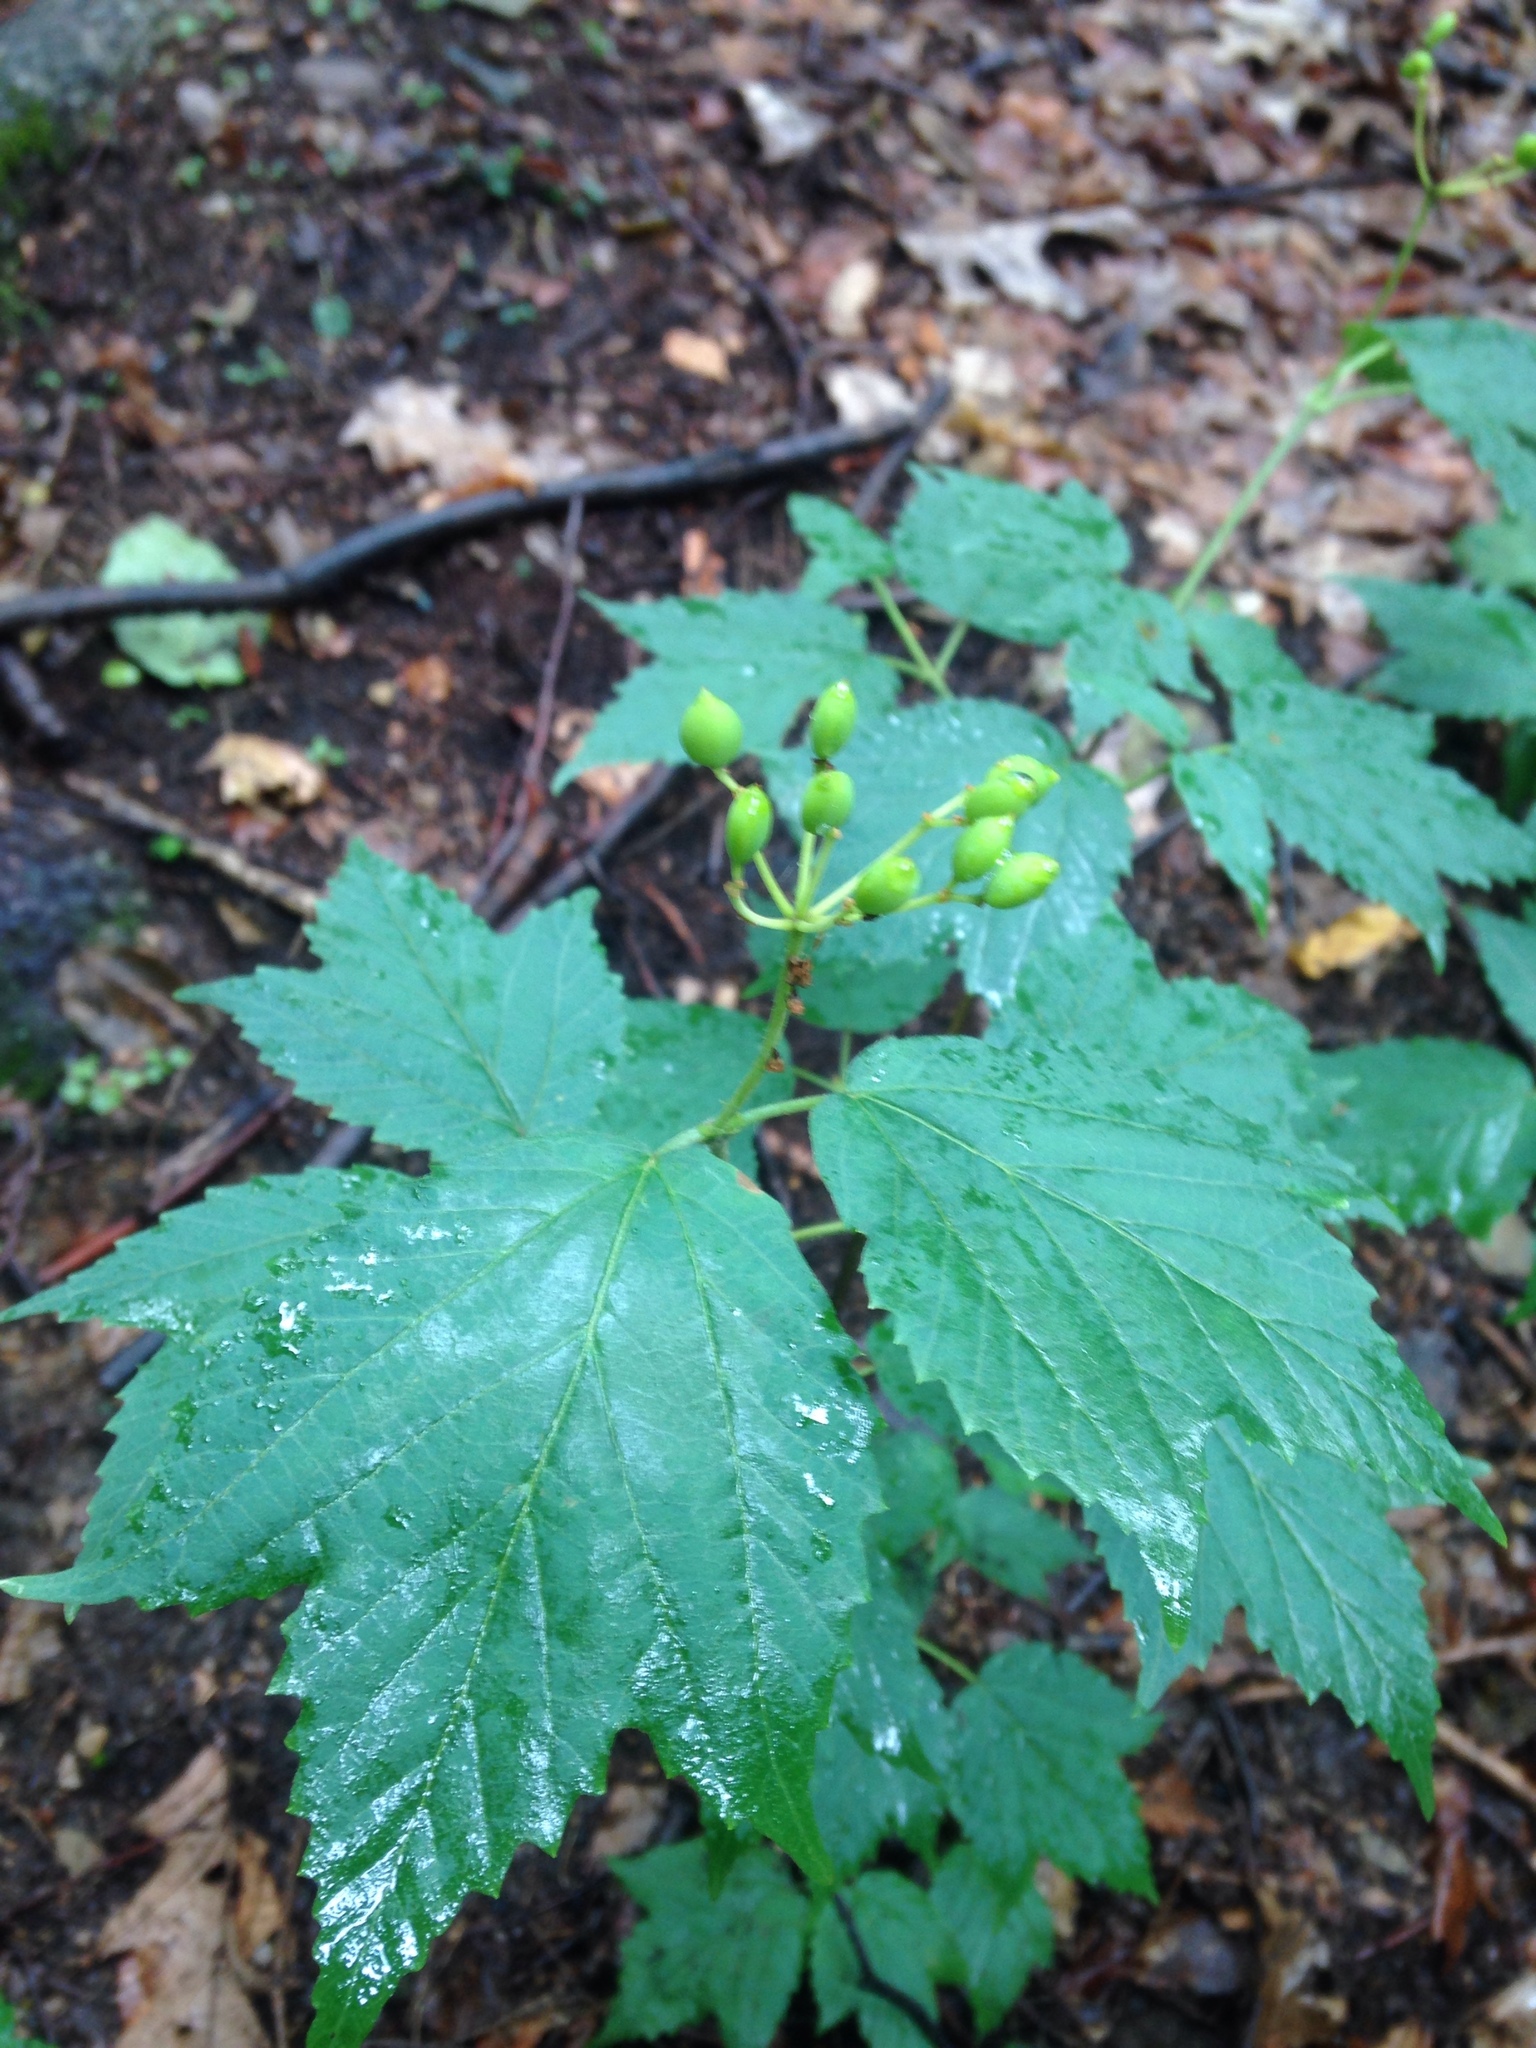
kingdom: Plantae
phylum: Tracheophyta
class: Magnoliopsida
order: Dipsacales
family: Viburnaceae
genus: Viburnum
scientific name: Viburnum acerifolium
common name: Dockmackie
